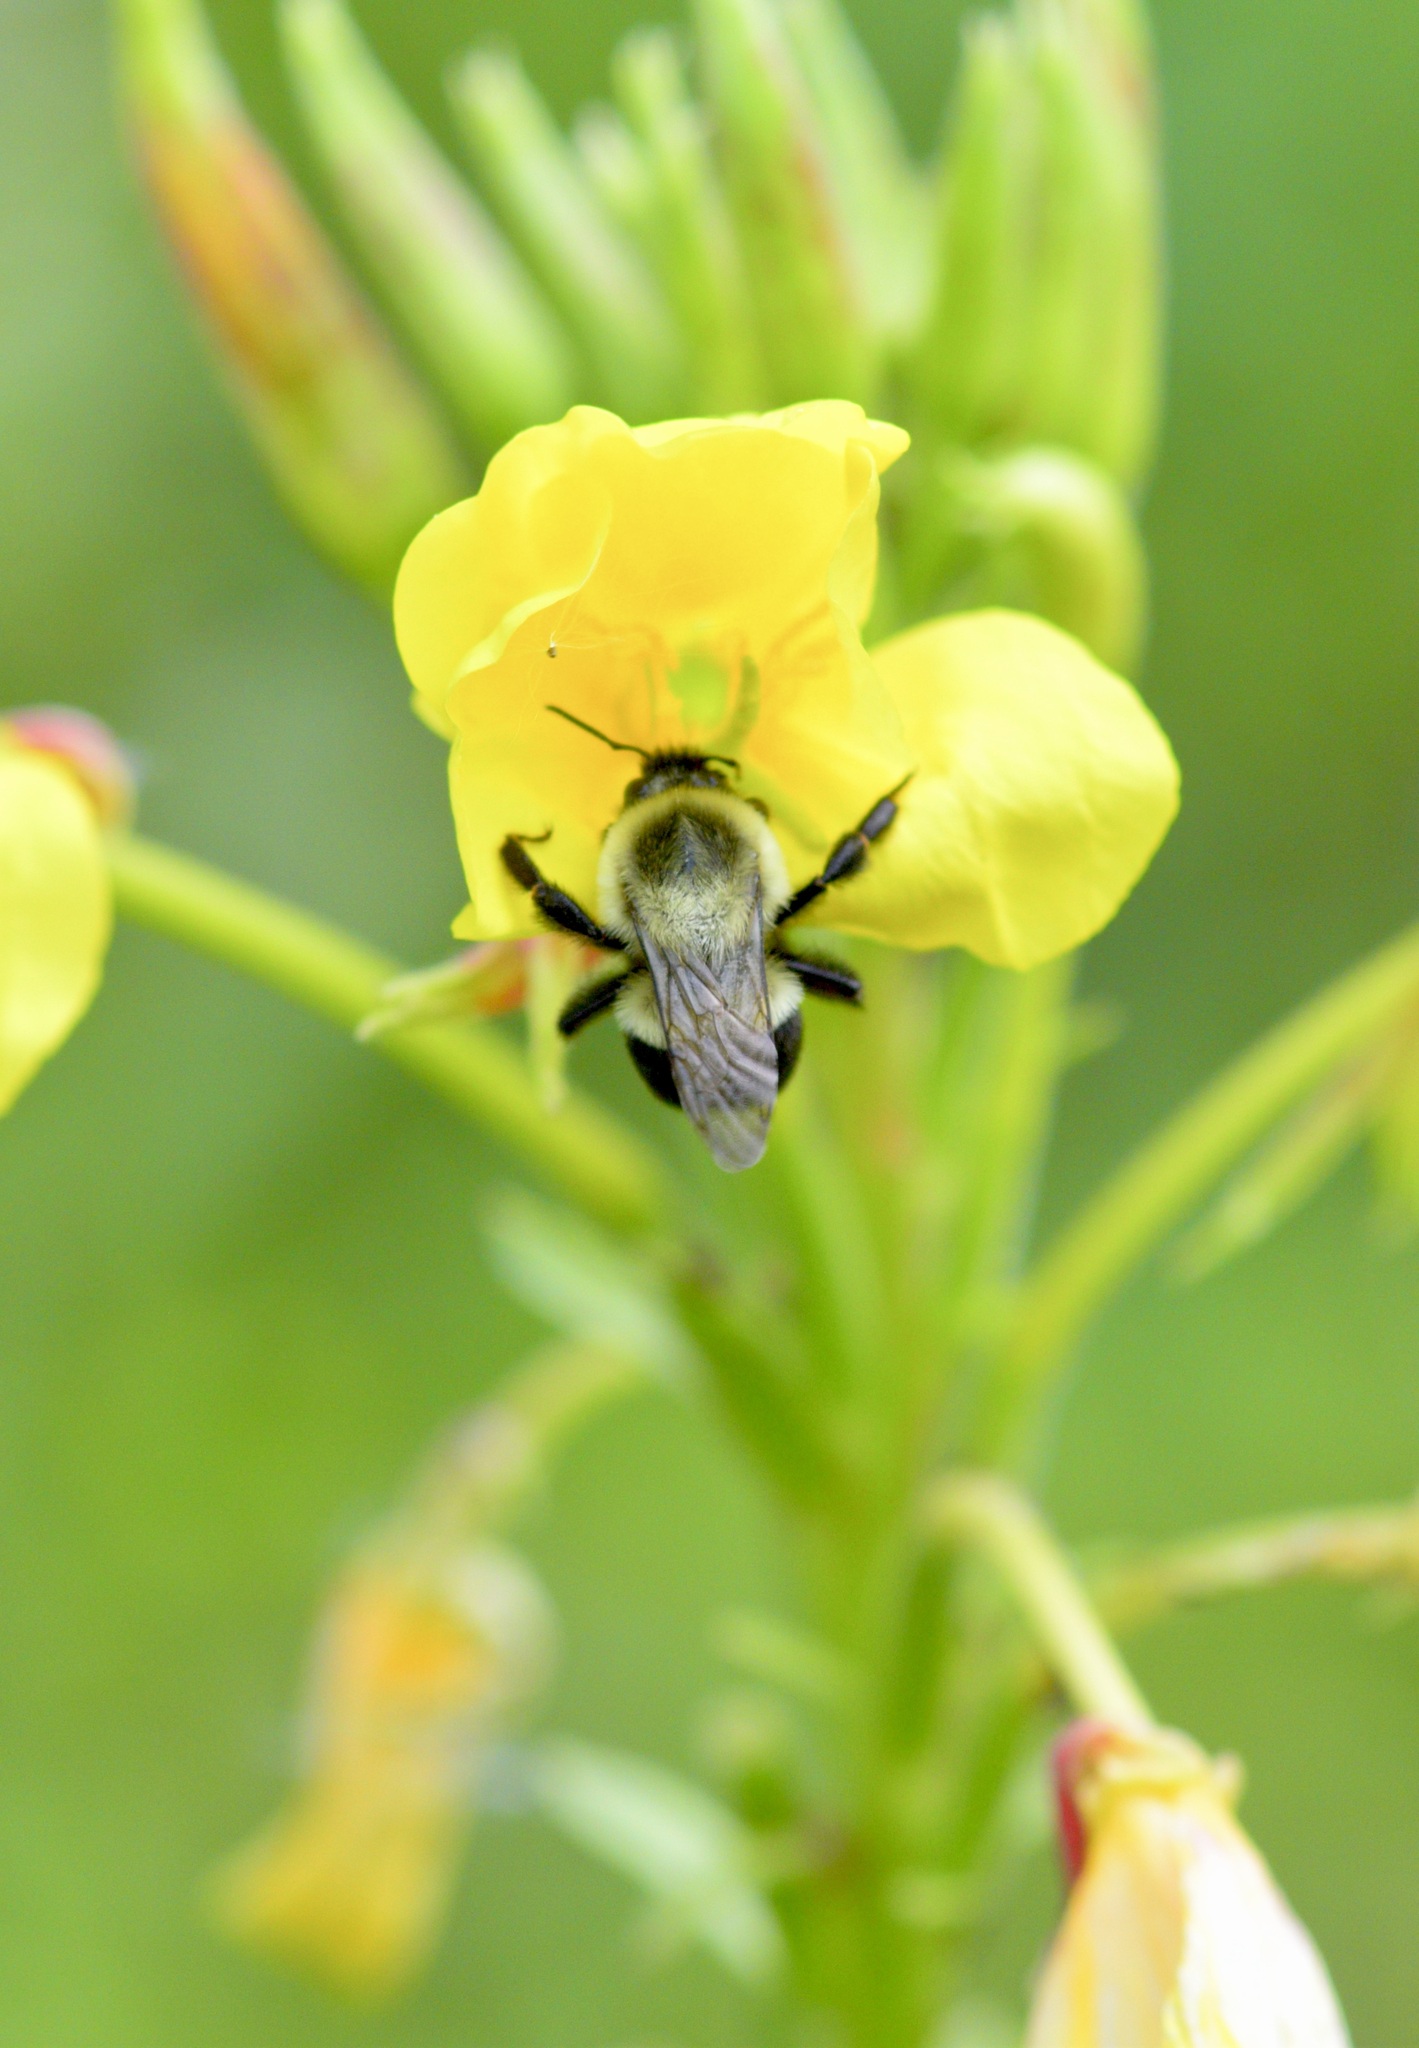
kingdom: Animalia
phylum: Arthropoda
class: Insecta
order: Hymenoptera
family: Apidae
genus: Bombus
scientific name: Bombus impatiens
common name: Common eastern bumble bee
